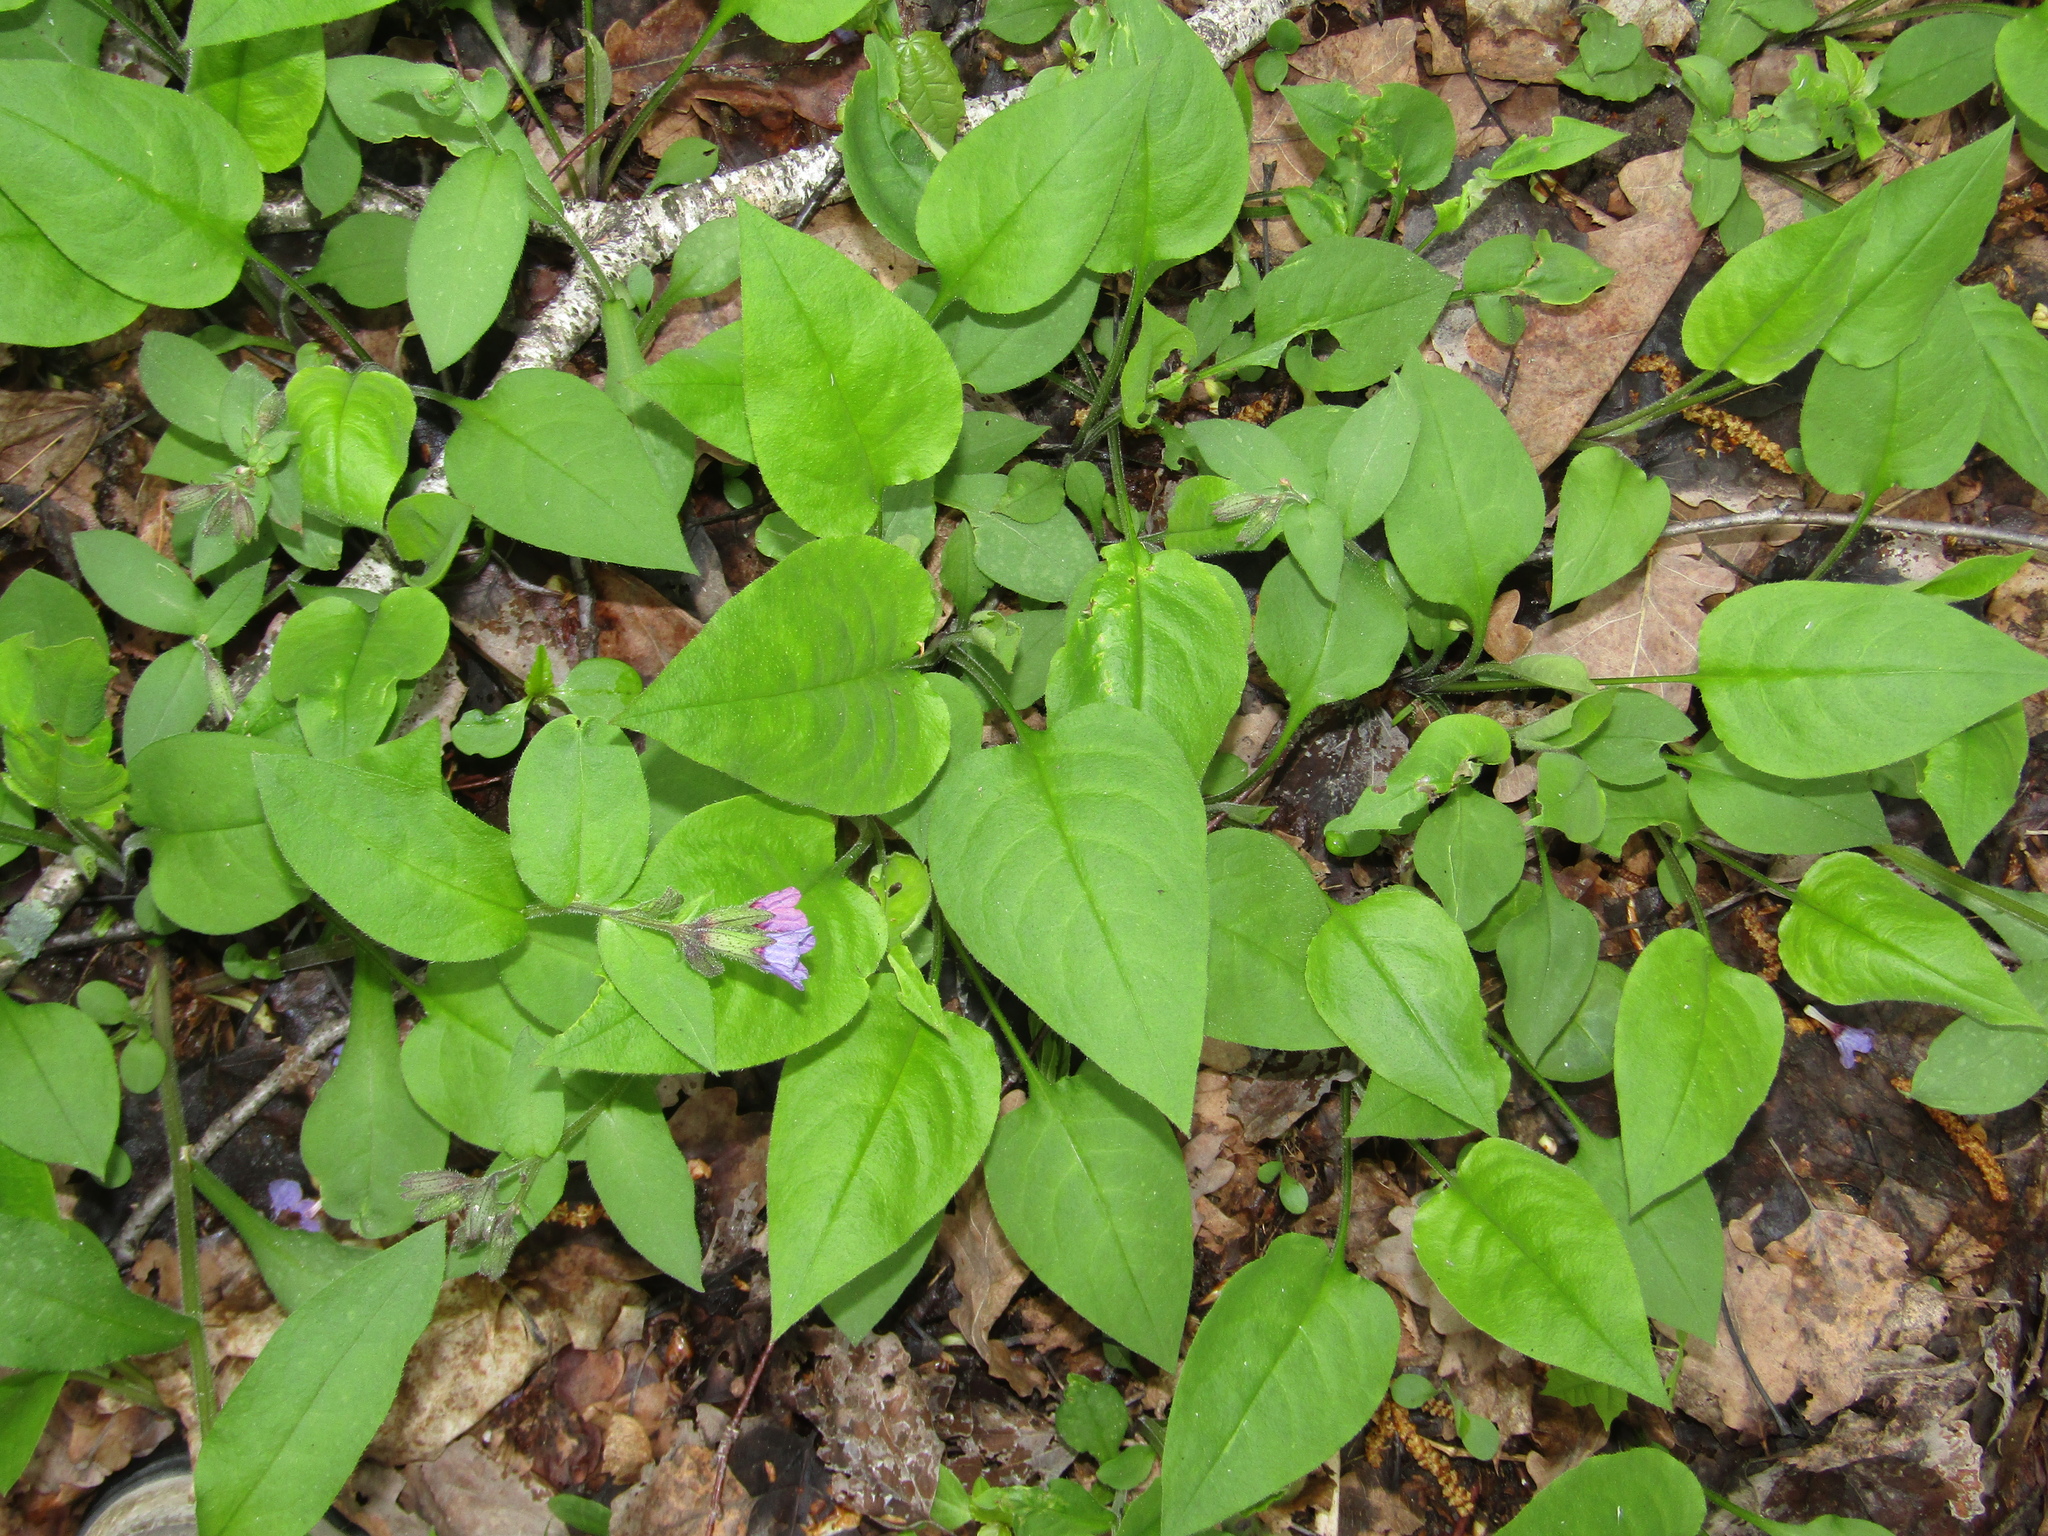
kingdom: Plantae
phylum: Tracheophyta
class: Magnoliopsida
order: Boraginales
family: Boraginaceae
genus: Pulmonaria
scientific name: Pulmonaria obscura
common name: Suffolk lungwort
